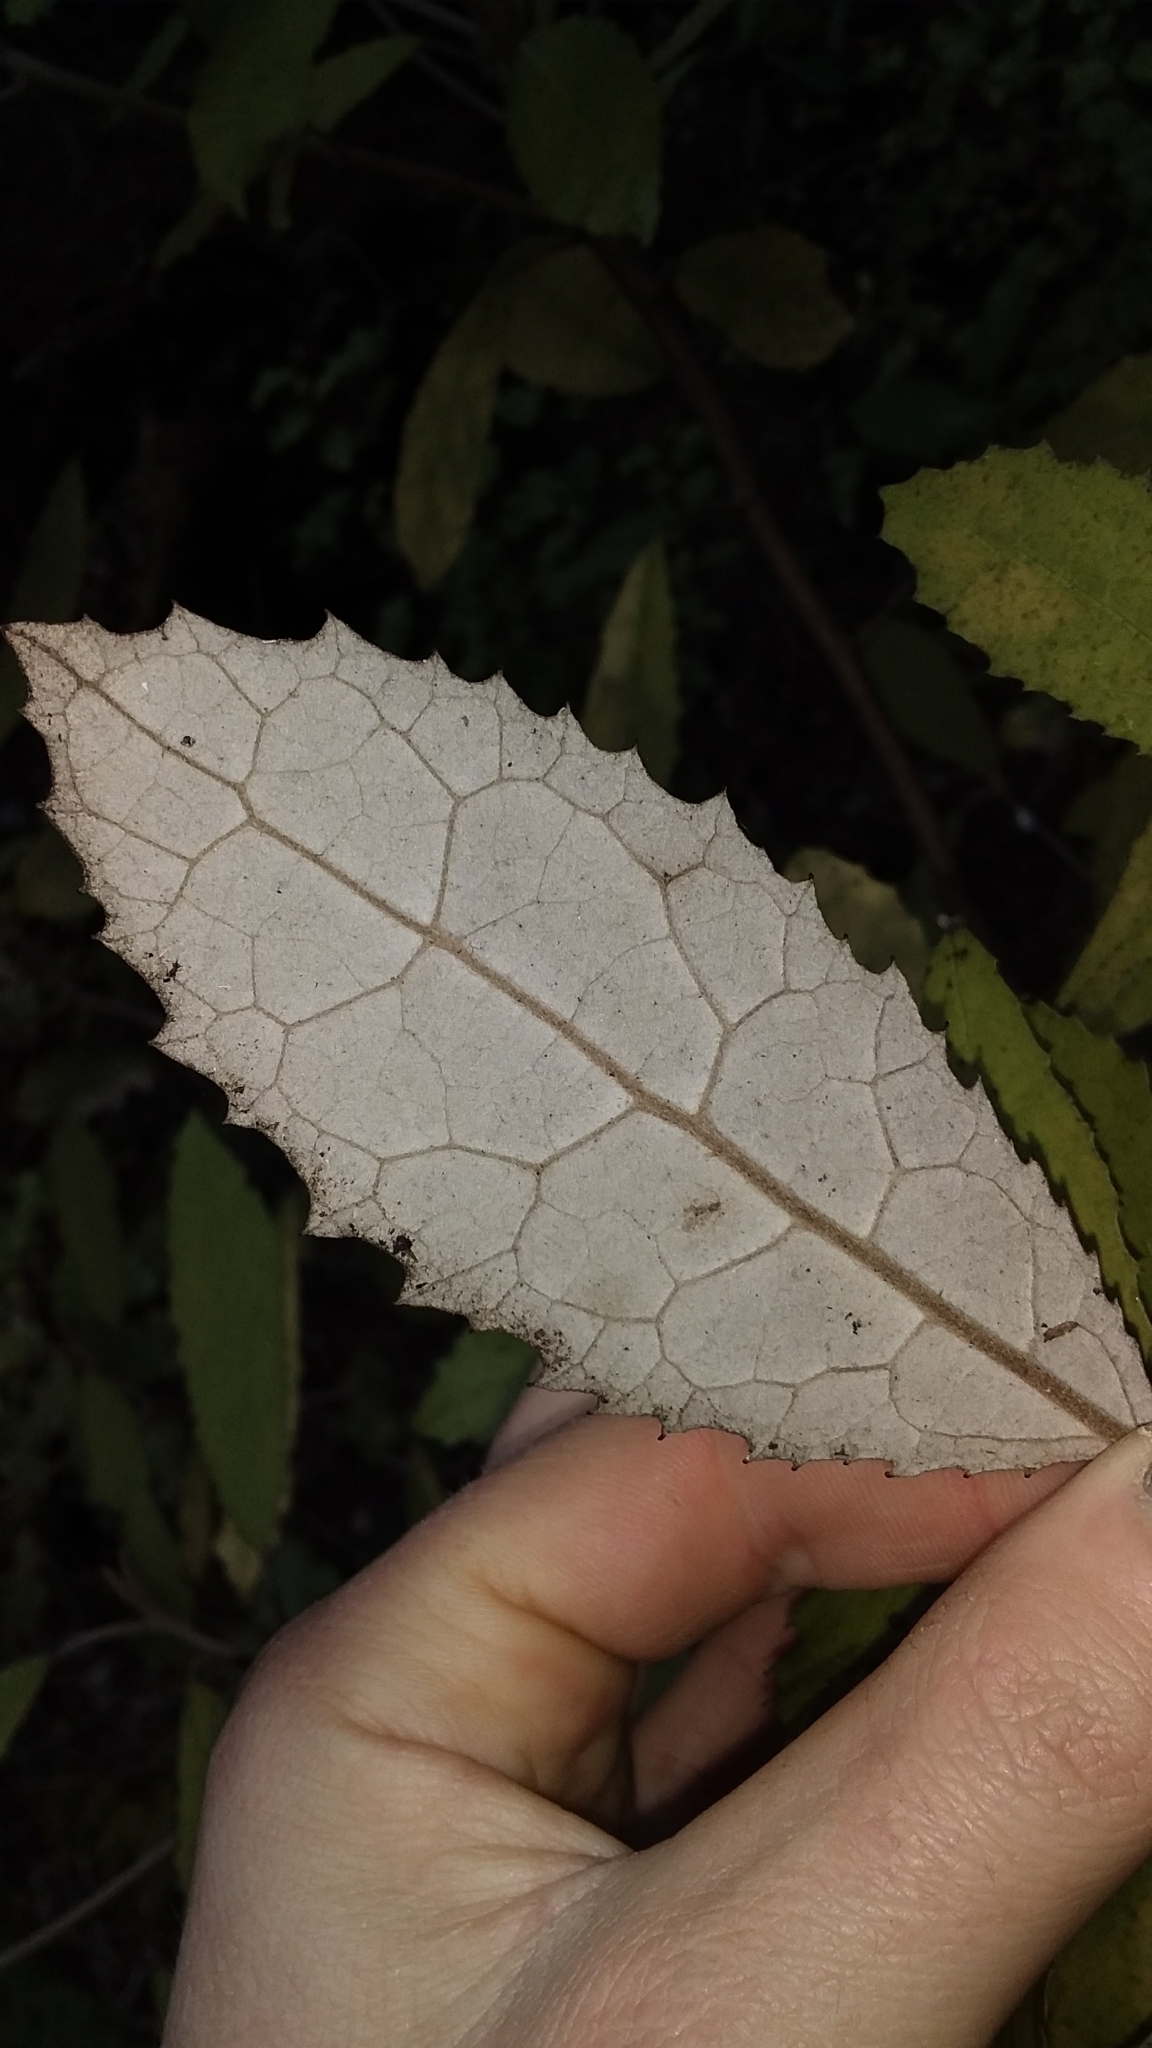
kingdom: Plantae
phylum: Tracheophyta
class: Magnoliopsida
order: Asterales
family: Asteraceae
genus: Olearia
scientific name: Olearia rani
